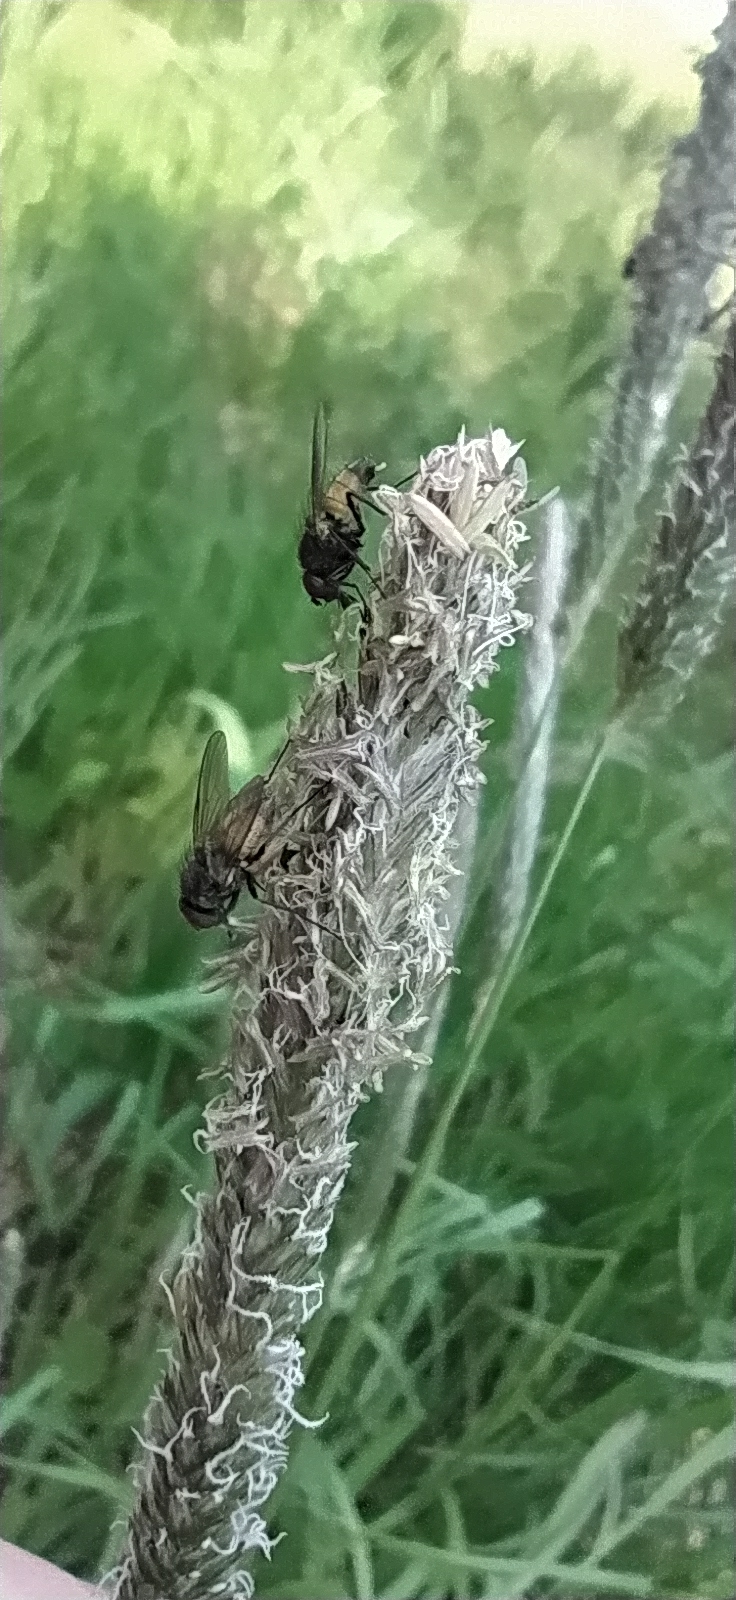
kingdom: Animalia
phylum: Arthropoda
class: Insecta
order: Diptera
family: Muscidae
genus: Thricops
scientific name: Thricops semicinereus
